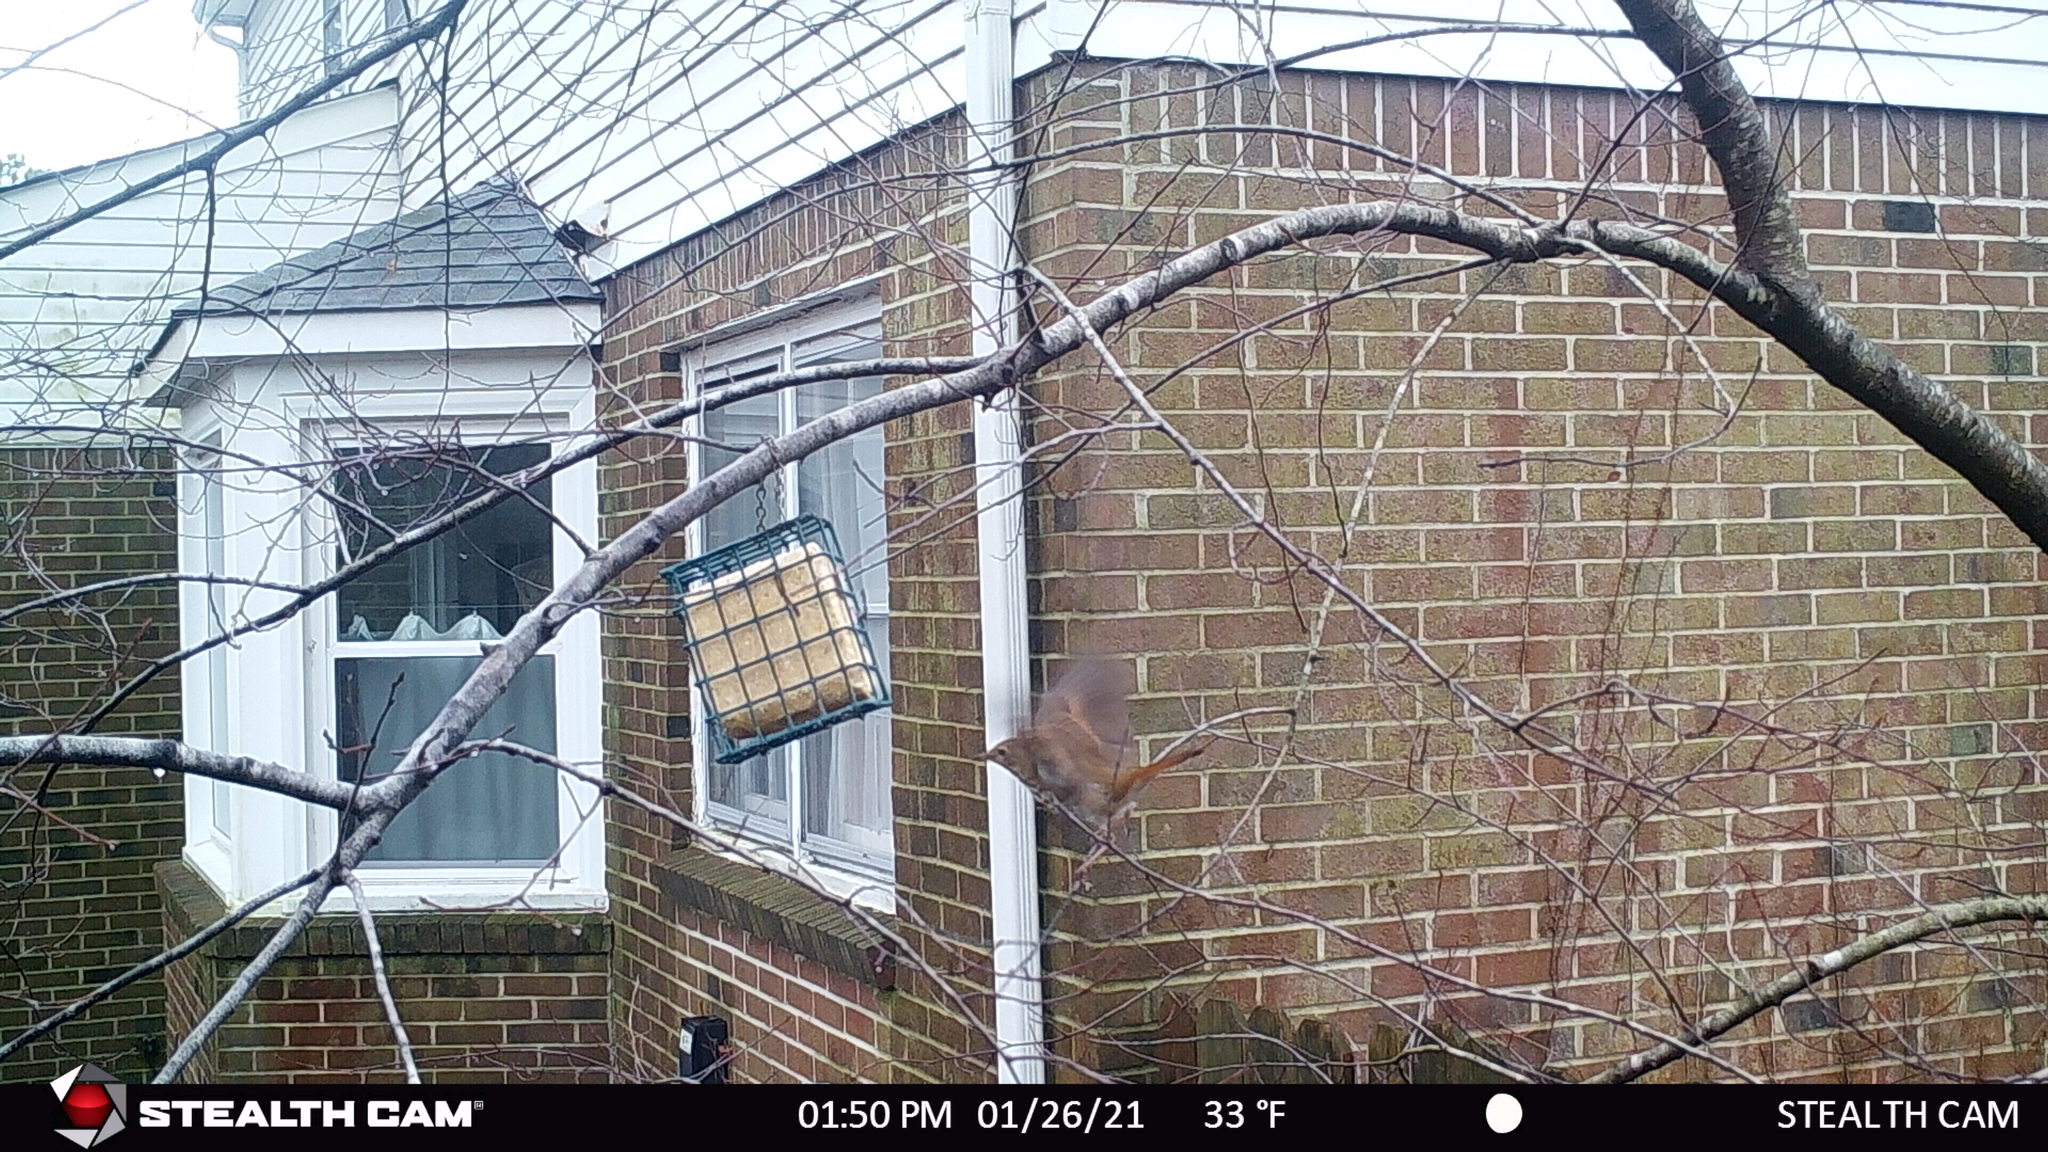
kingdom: Animalia
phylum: Chordata
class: Aves
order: Passeriformes
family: Turdidae
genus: Catharus
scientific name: Catharus guttatus
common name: Hermit thrush
